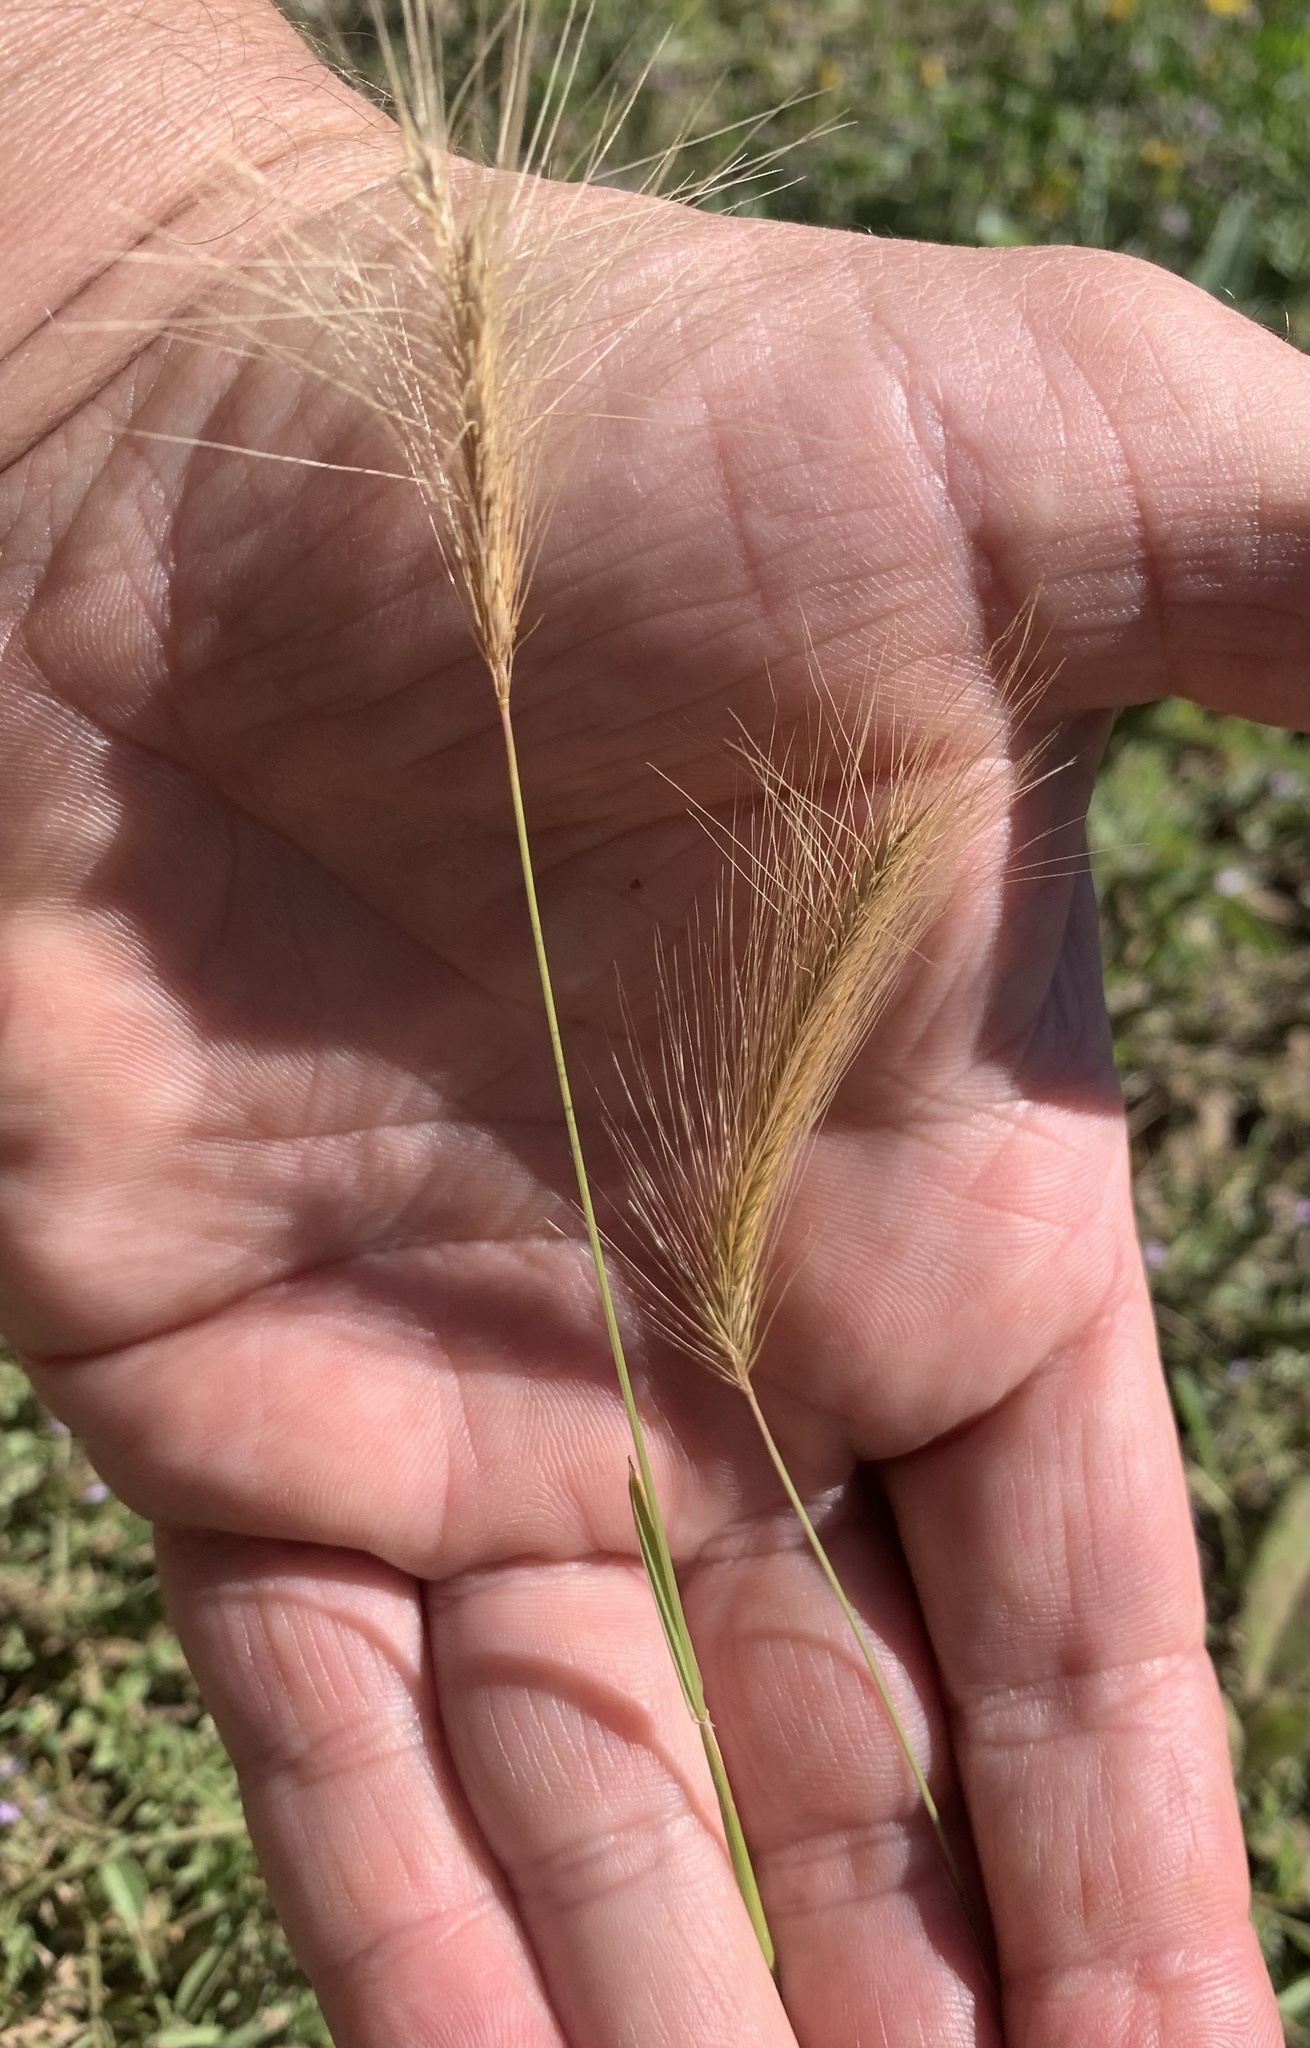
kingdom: Plantae
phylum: Tracheophyta
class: Liliopsida
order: Poales
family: Poaceae
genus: Hordeum
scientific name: Hordeum jubatum
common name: Foxtail barley
